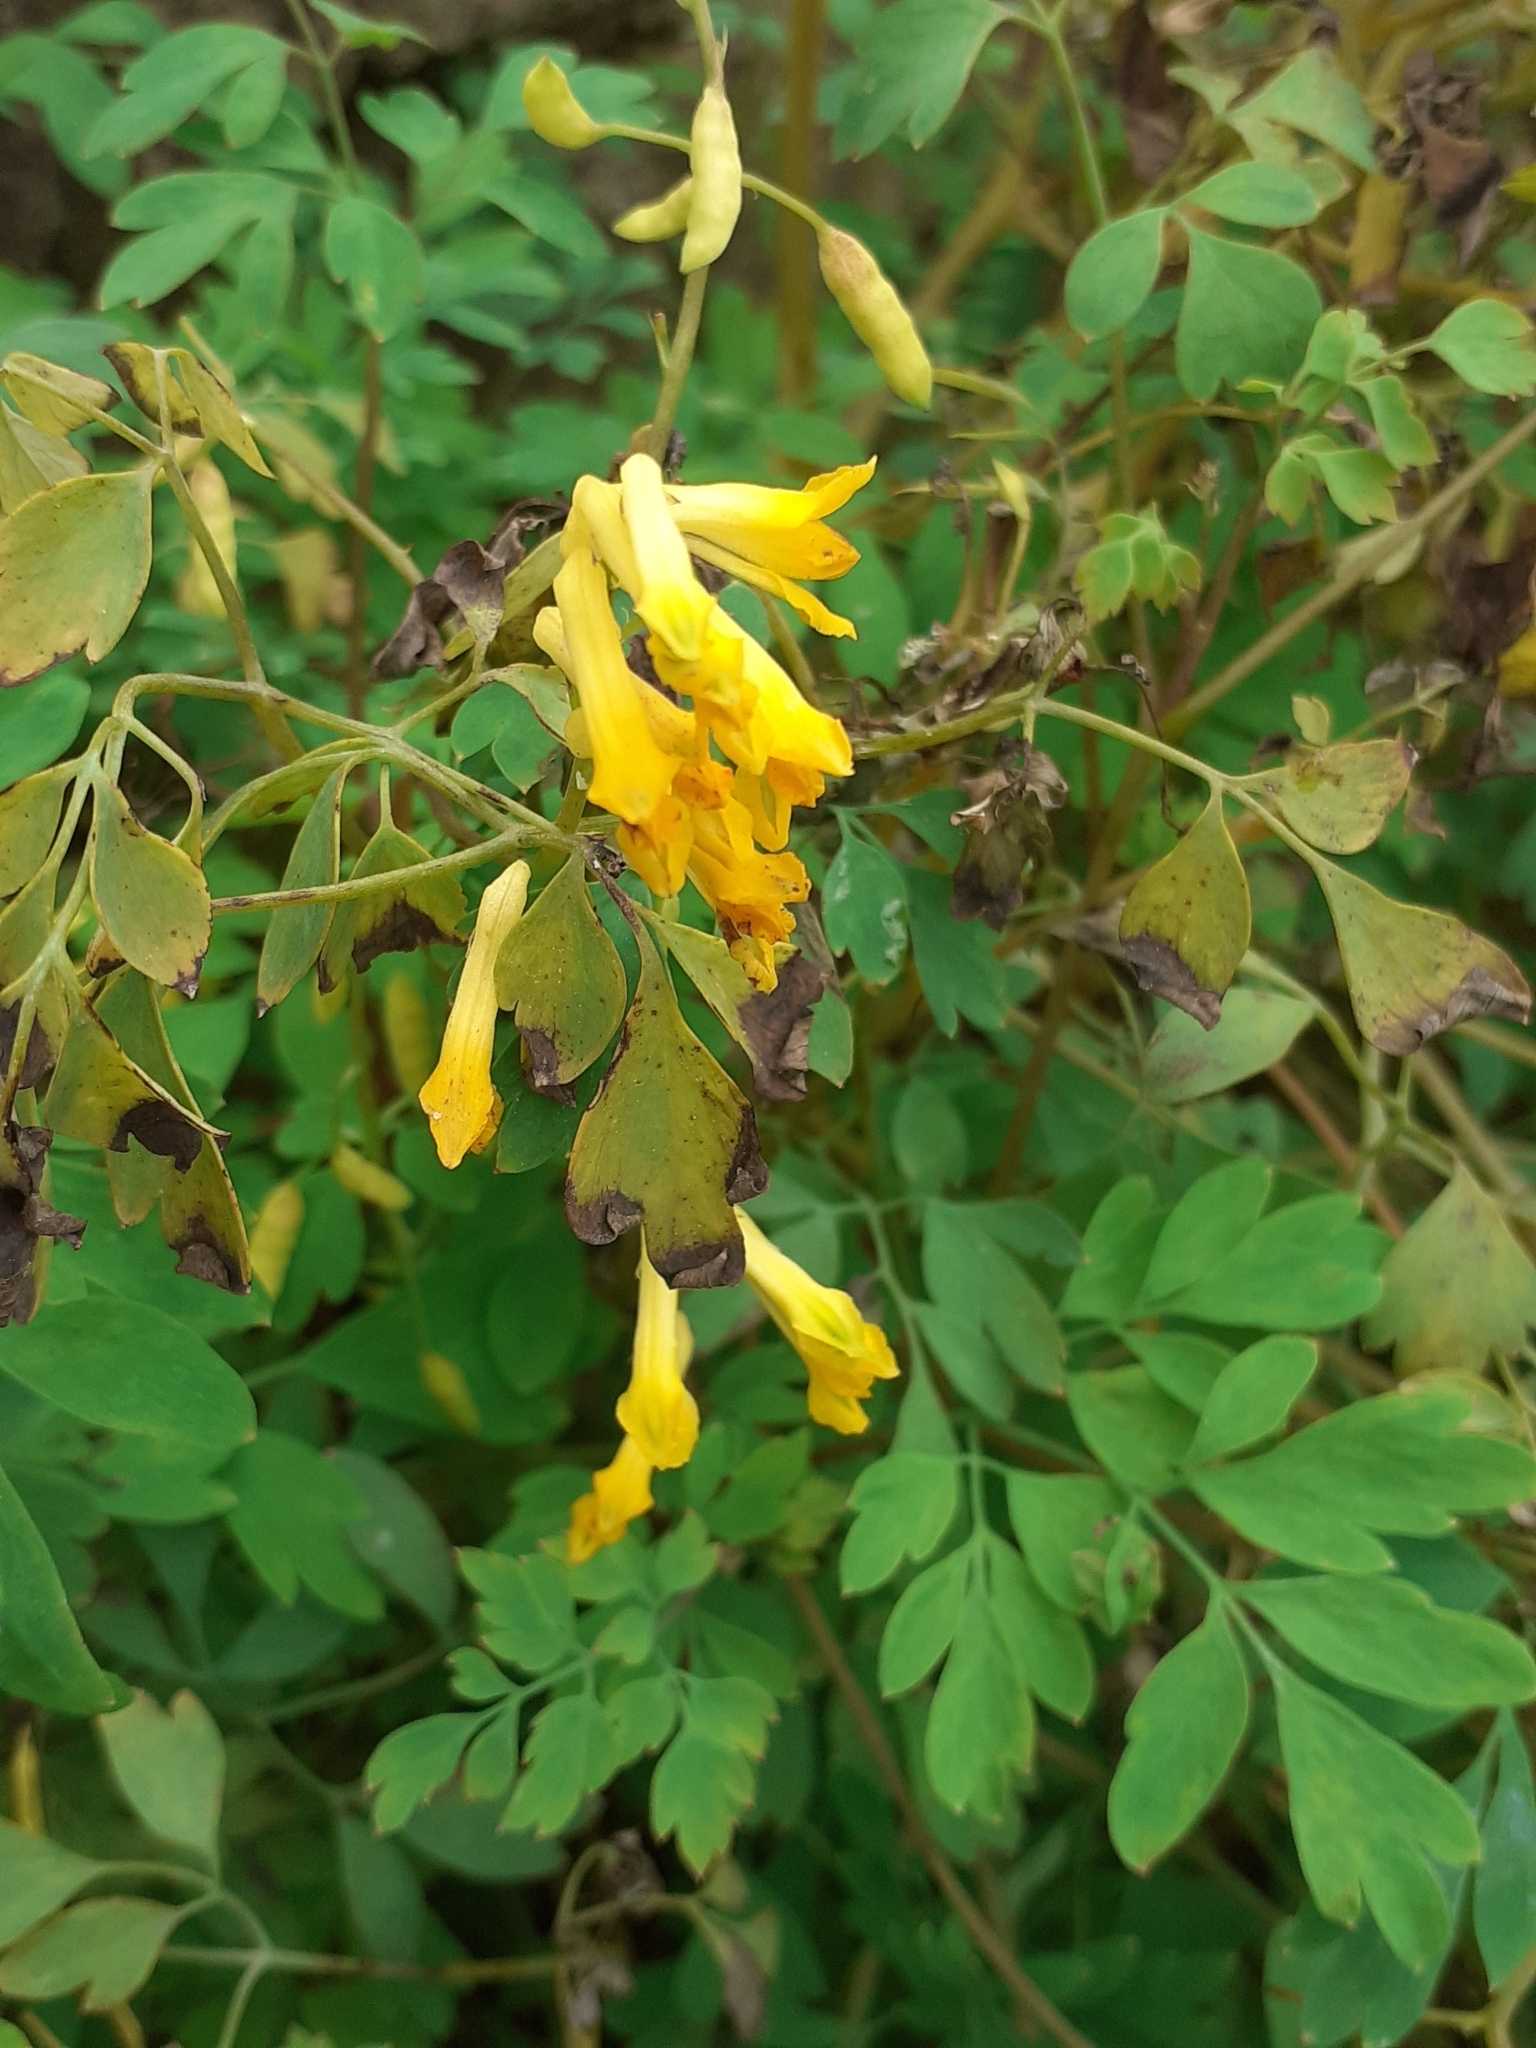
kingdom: Plantae
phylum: Tracheophyta
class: Magnoliopsida
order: Ranunculales
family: Papaveraceae
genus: Pseudofumaria
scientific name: Pseudofumaria lutea
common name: Yellow corydalis
